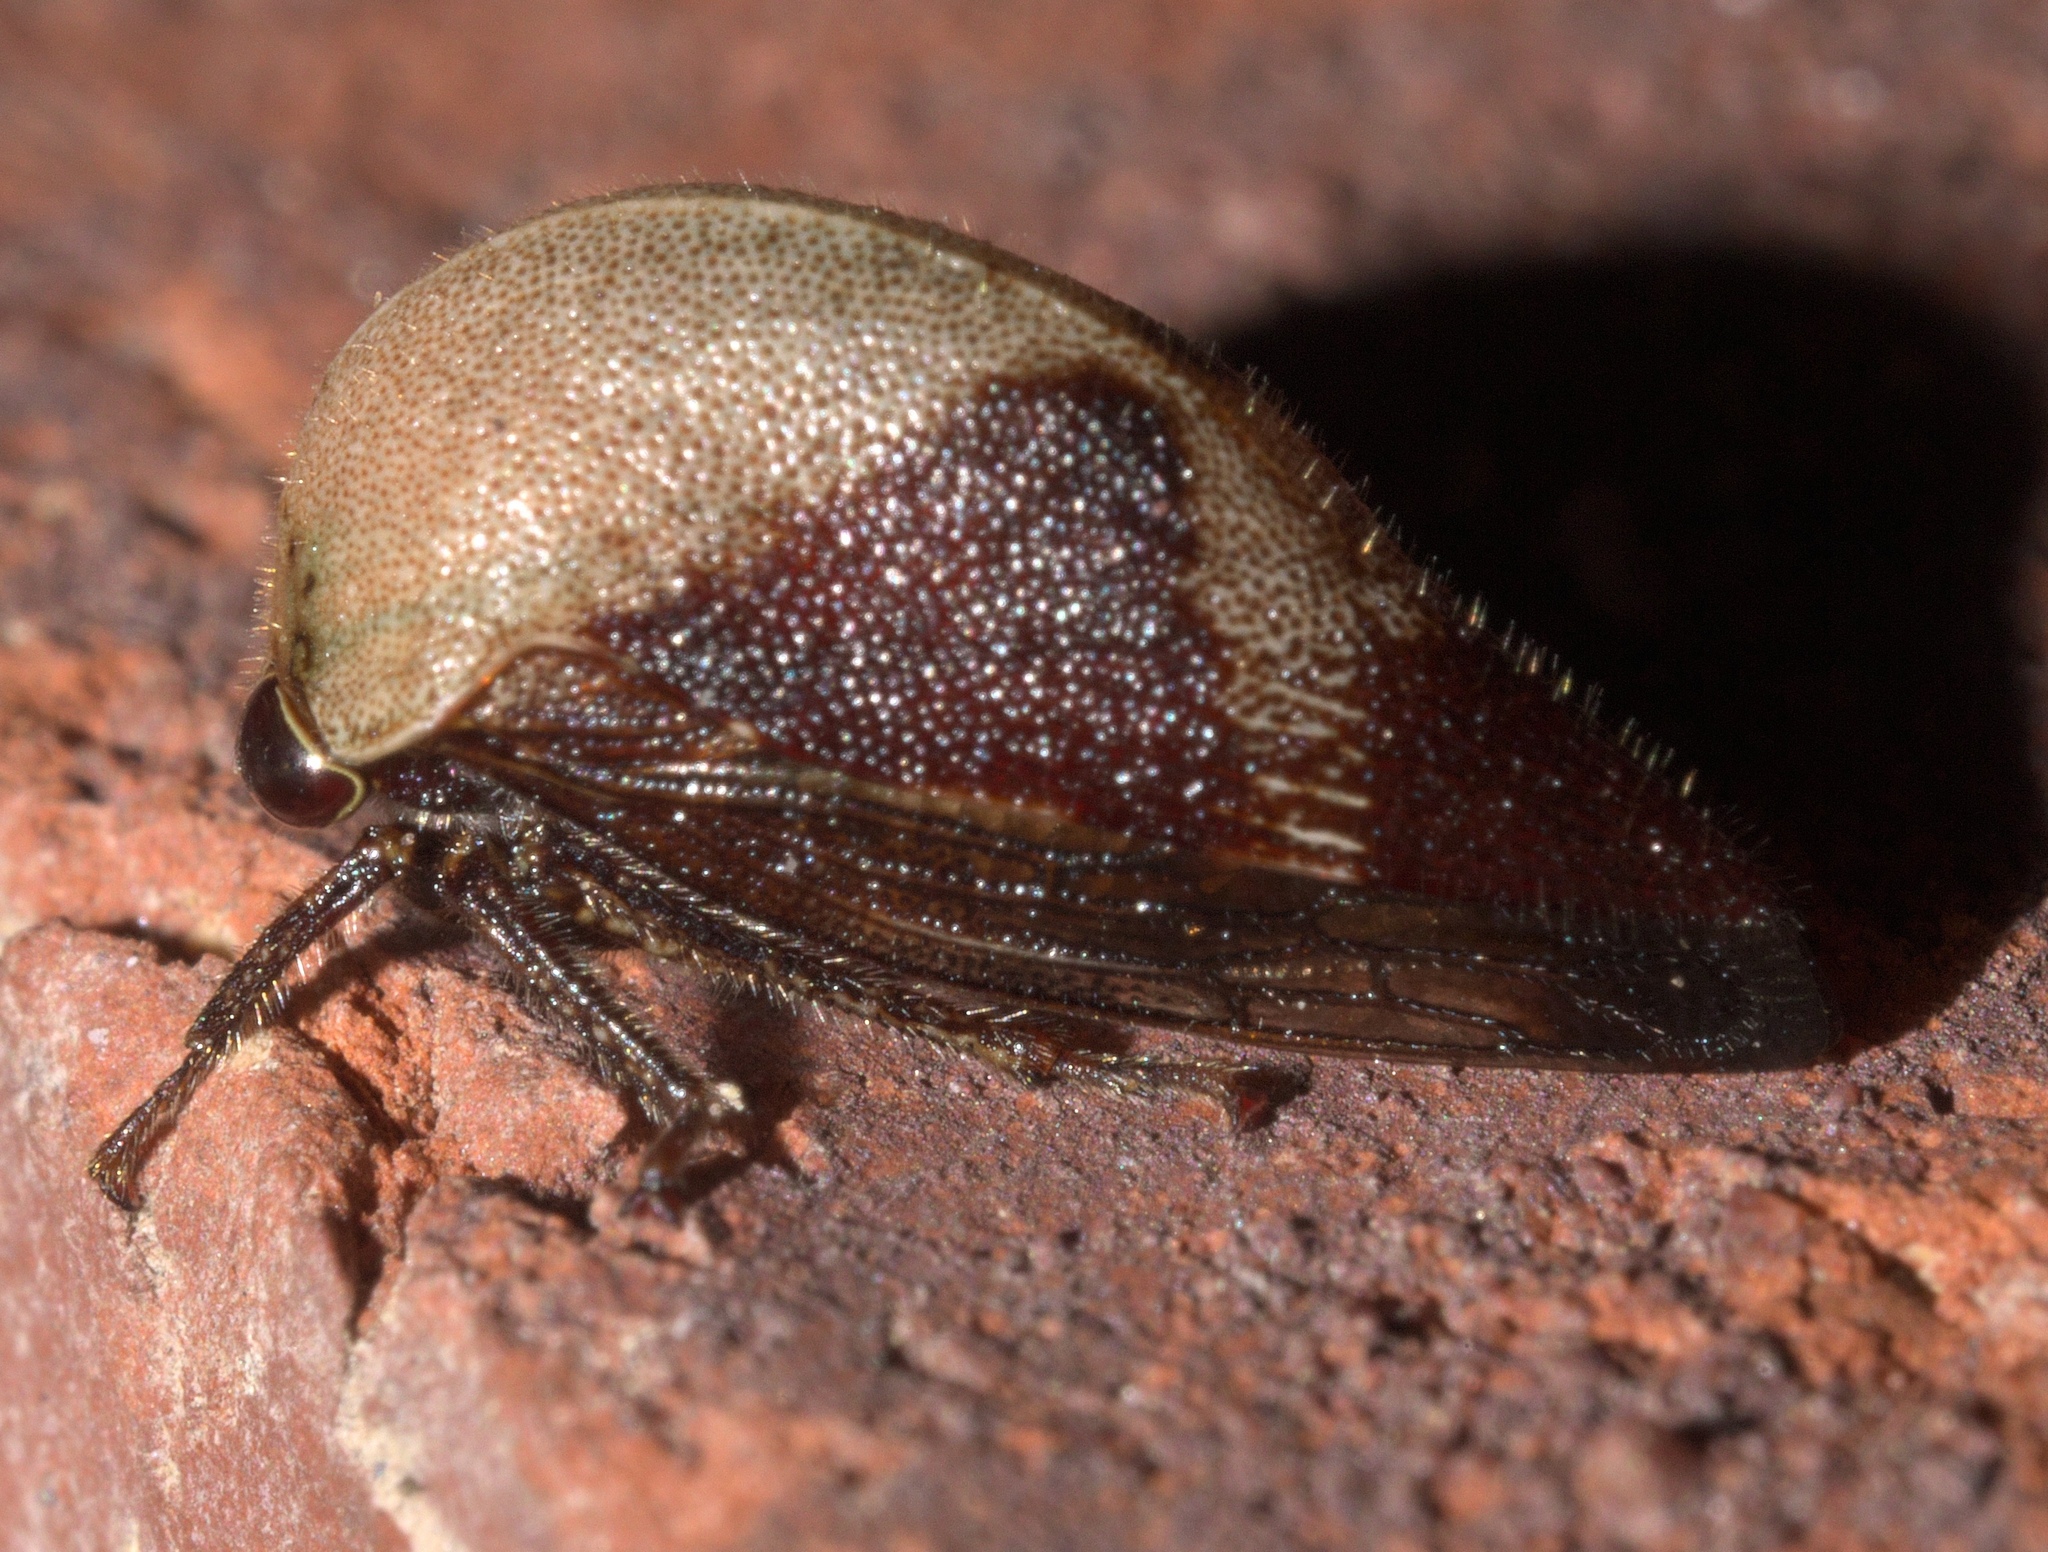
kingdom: Animalia
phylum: Arthropoda
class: Insecta
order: Hemiptera
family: Membracidae
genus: Carynota
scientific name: Carynota mera
